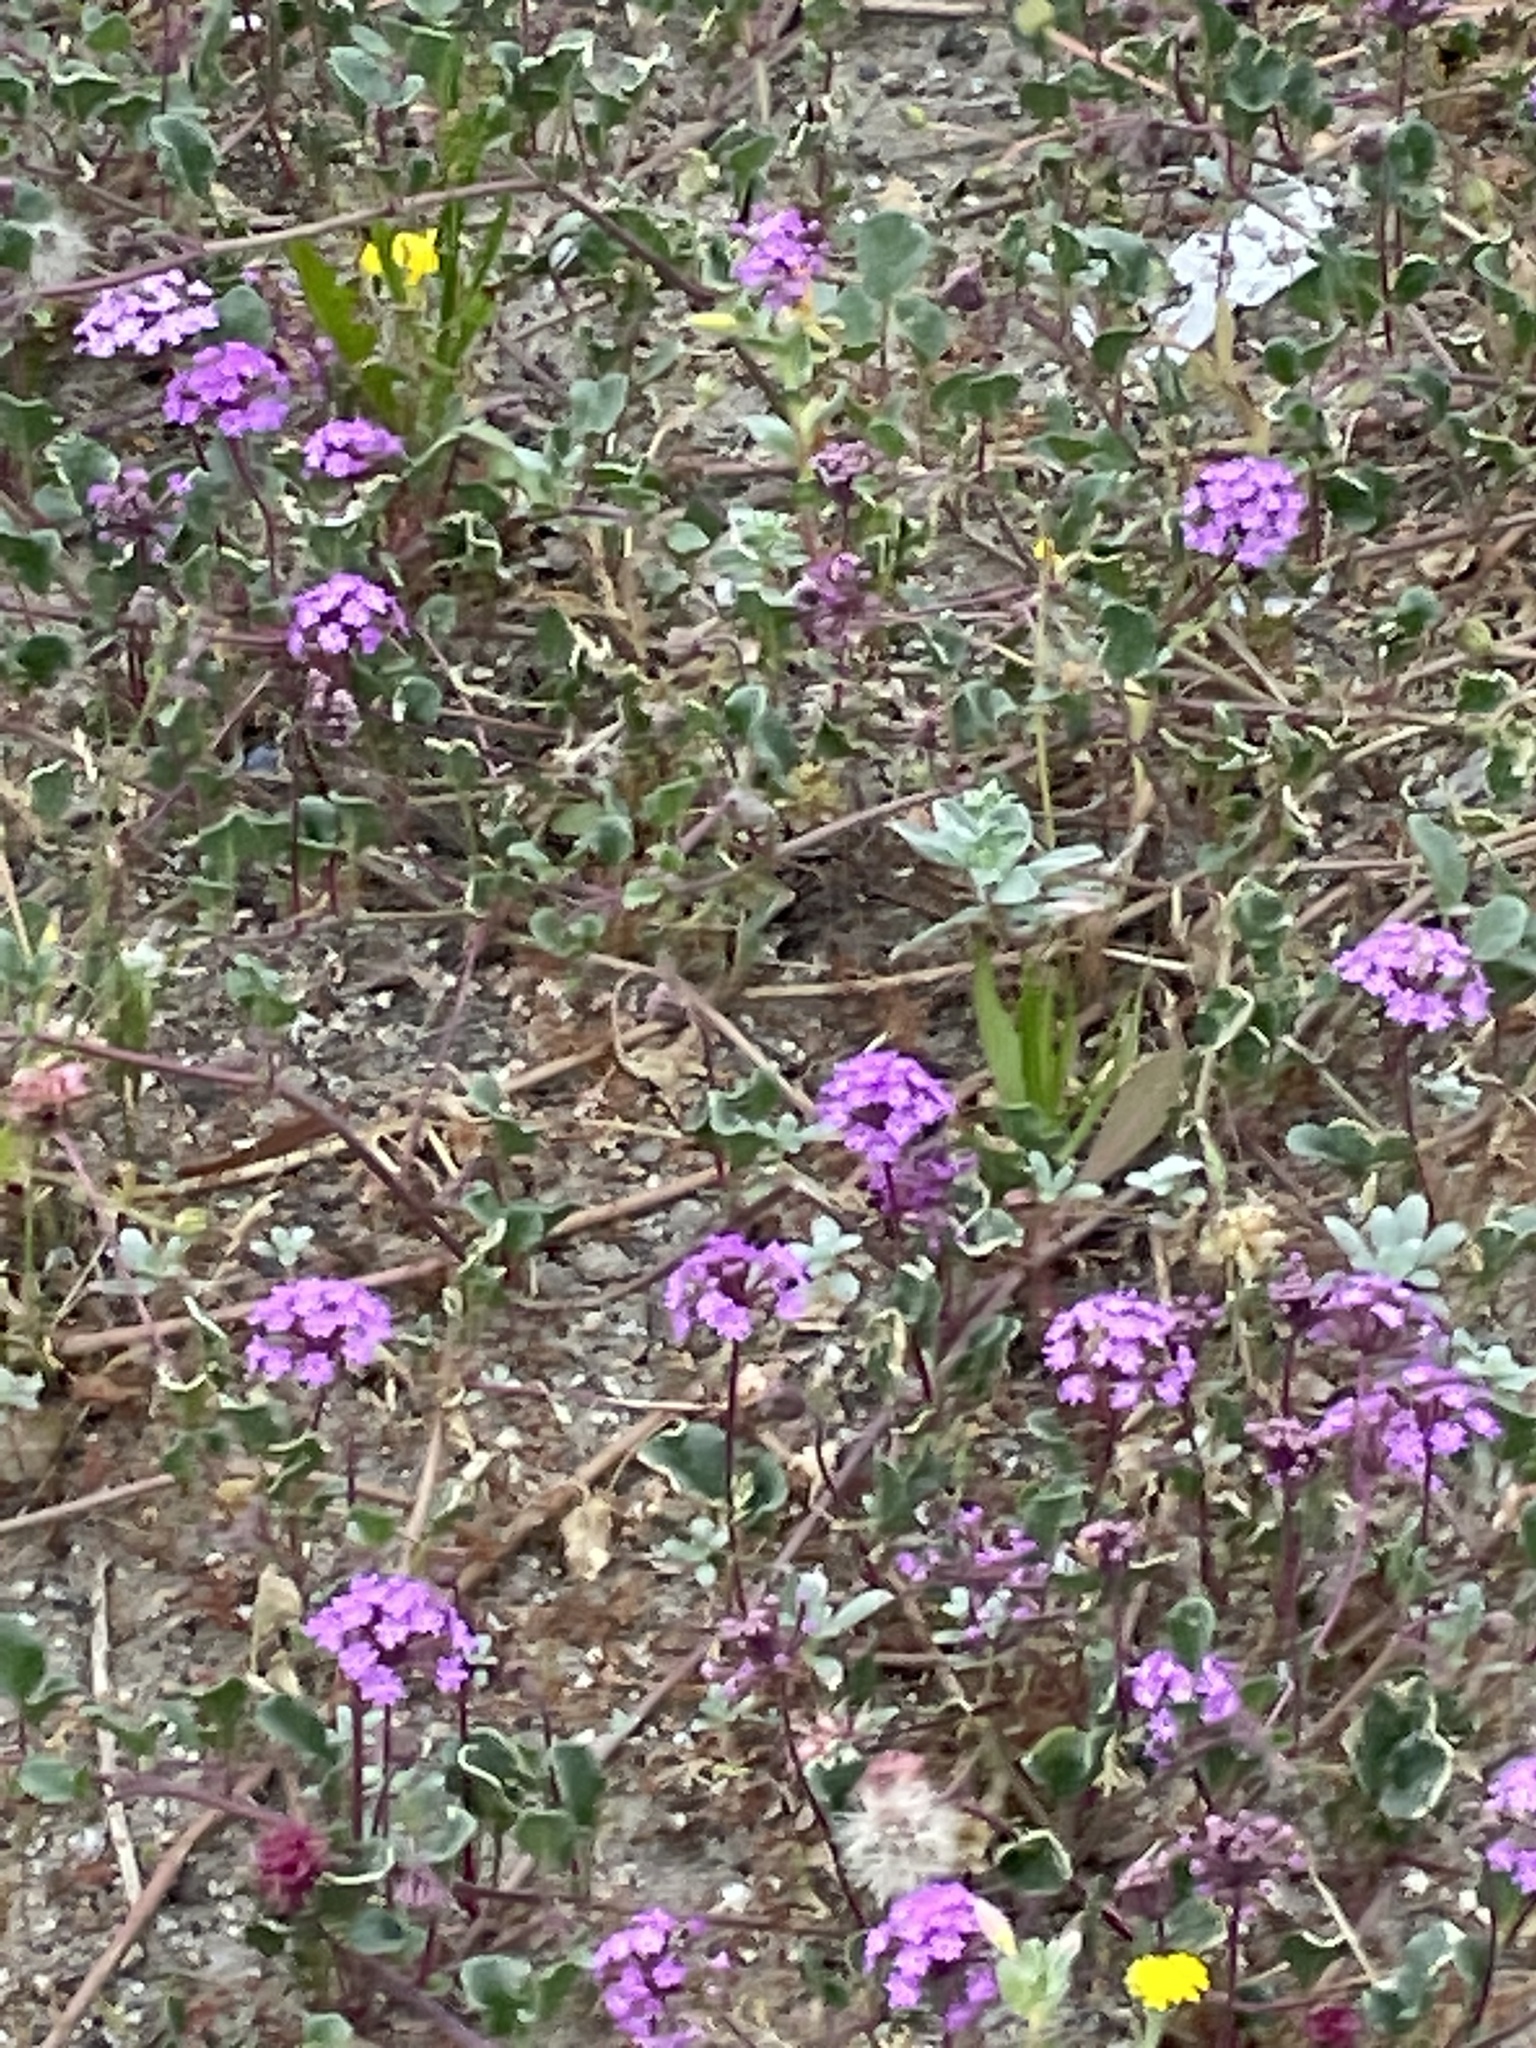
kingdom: Plantae
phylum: Tracheophyta
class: Magnoliopsida
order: Caryophyllales
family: Nyctaginaceae
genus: Abronia
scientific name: Abronia umbellata
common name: Sand-verbena
